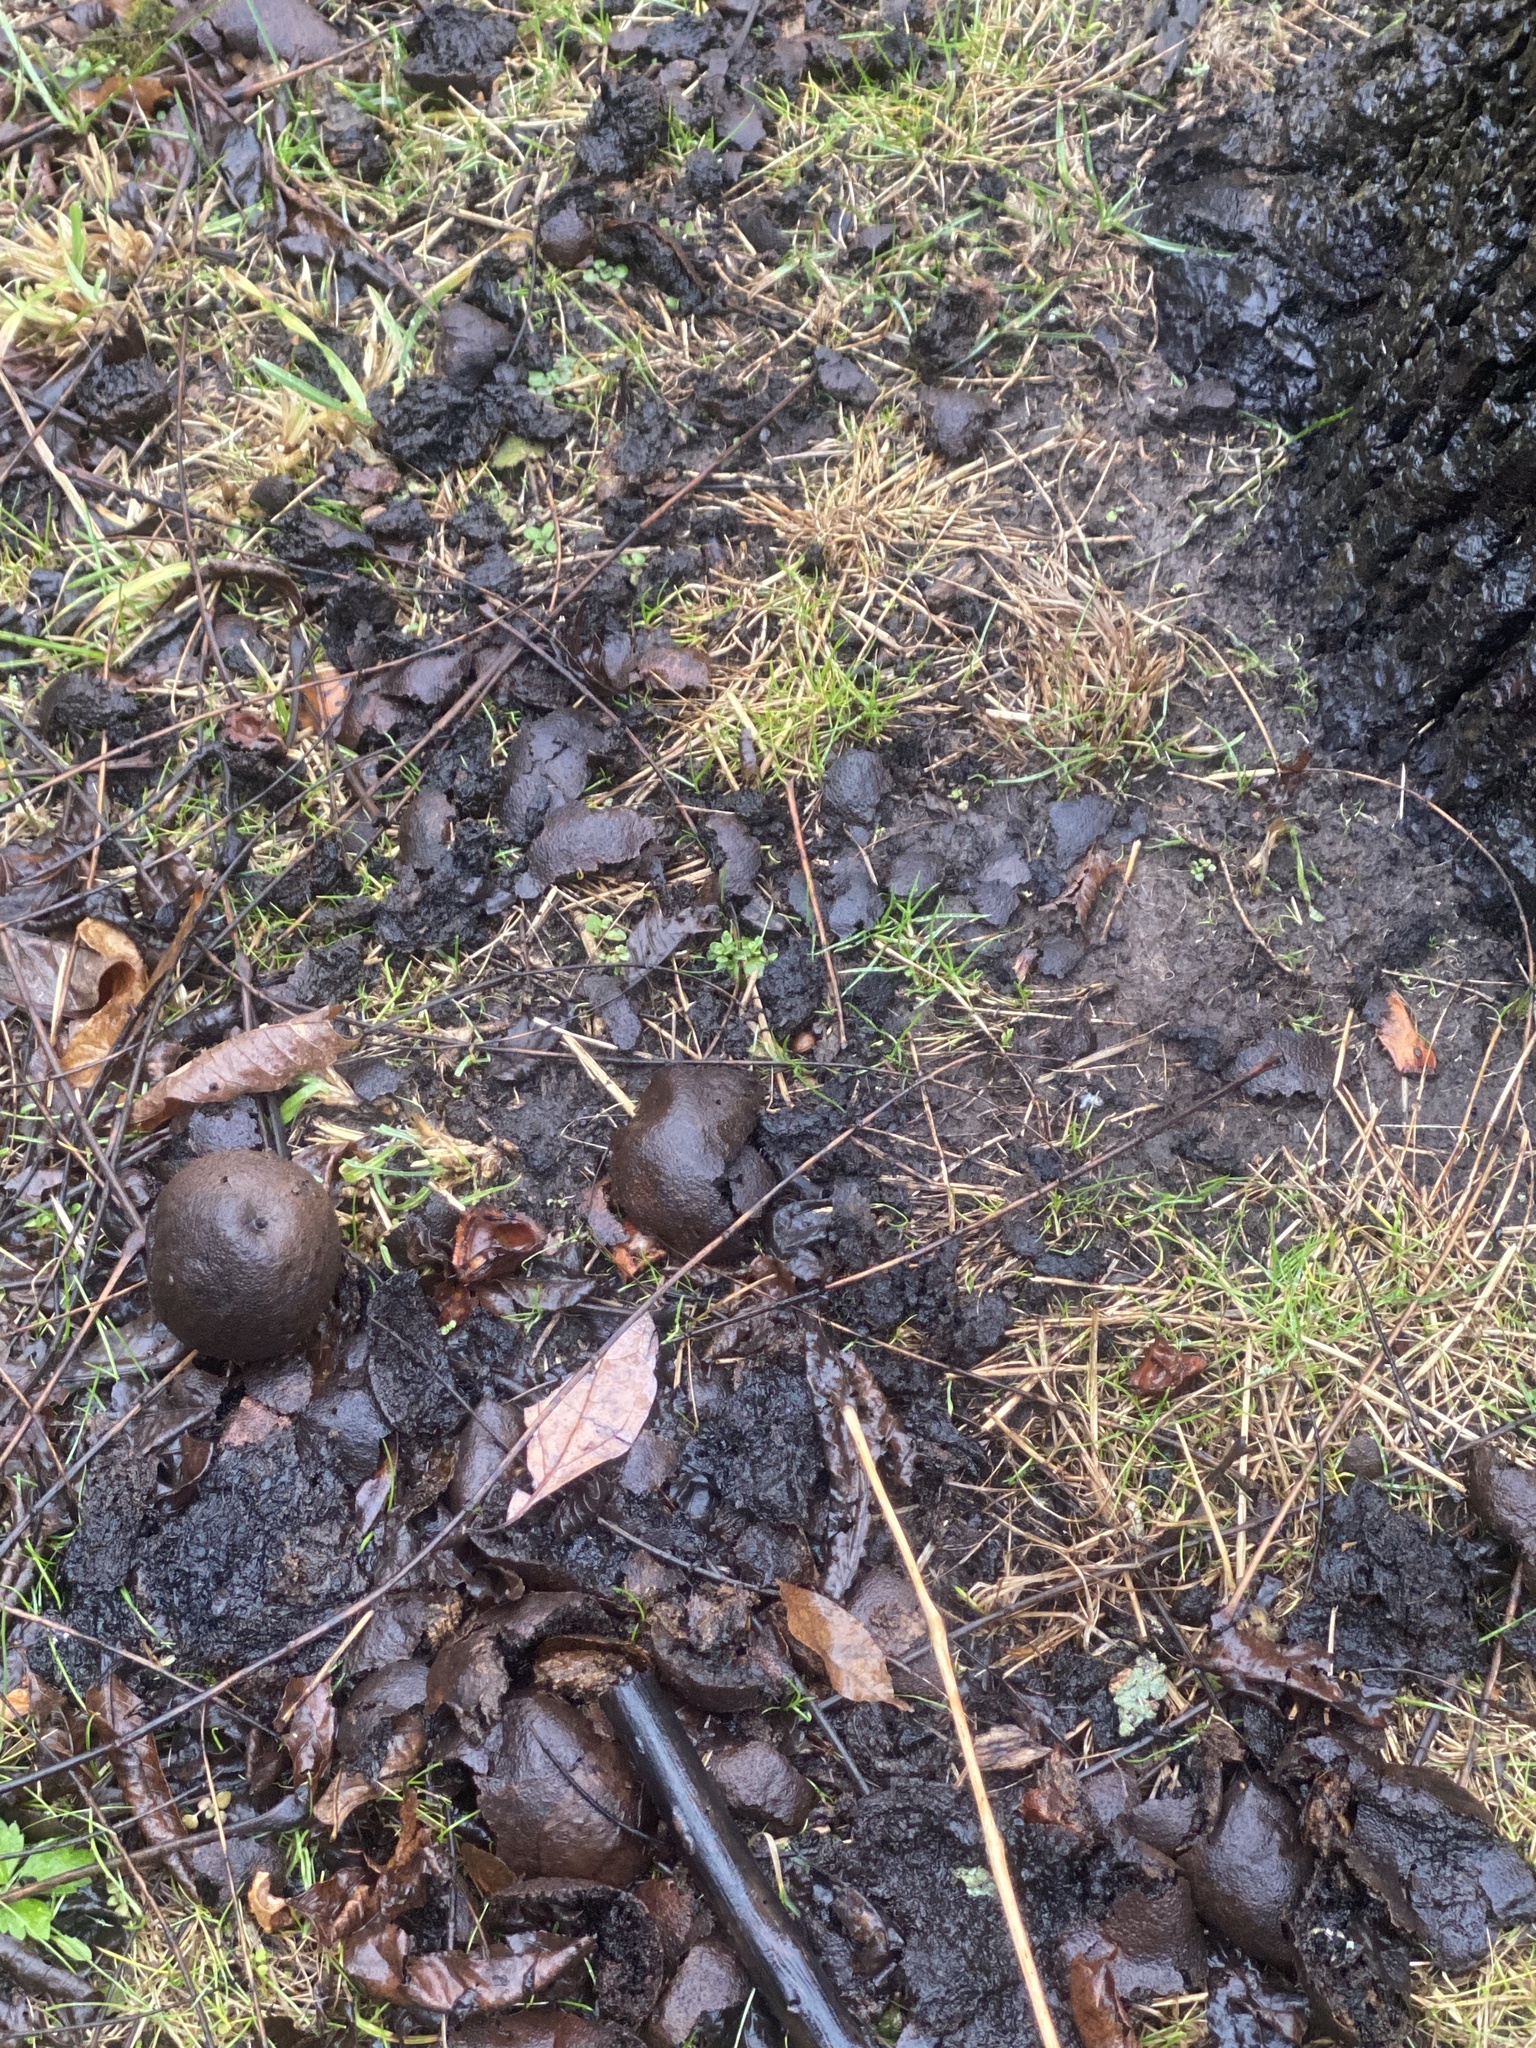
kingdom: Plantae
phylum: Tracheophyta
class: Magnoliopsida
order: Fagales
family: Juglandaceae
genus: Juglans
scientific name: Juglans nigra
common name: Black walnut
